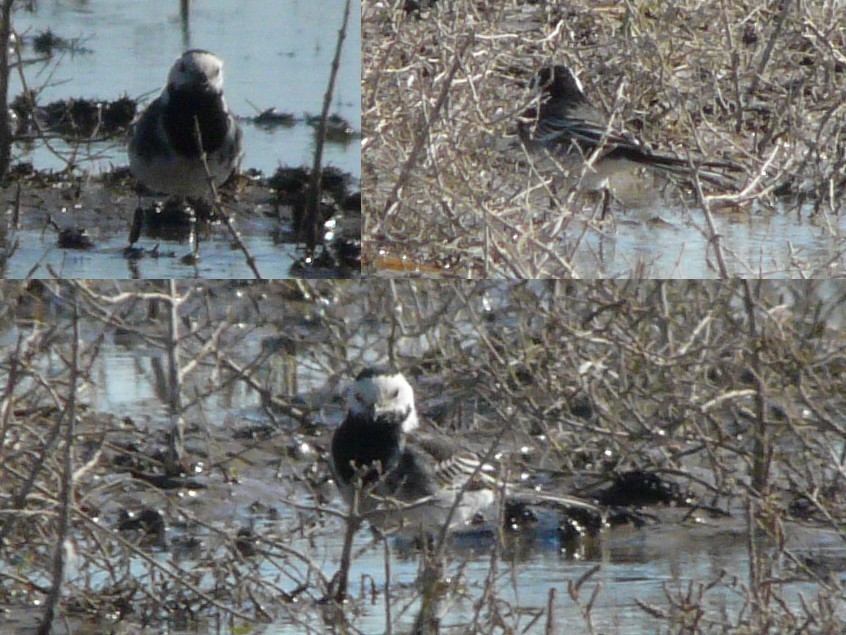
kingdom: Animalia
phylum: Chordata
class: Aves
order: Passeriformes
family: Motacillidae
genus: Motacilla
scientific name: Motacilla alba
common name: White wagtail
